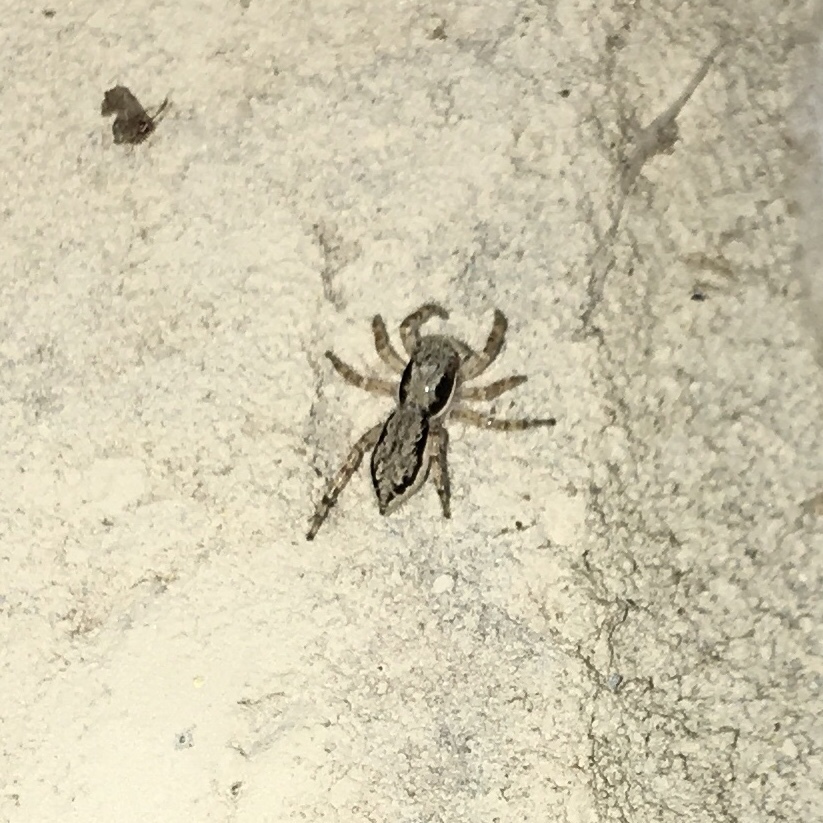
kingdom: Animalia
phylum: Arthropoda
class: Arachnida
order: Araneae
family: Salticidae
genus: Menemerus
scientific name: Menemerus bivittatus
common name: Gray wall jumper
